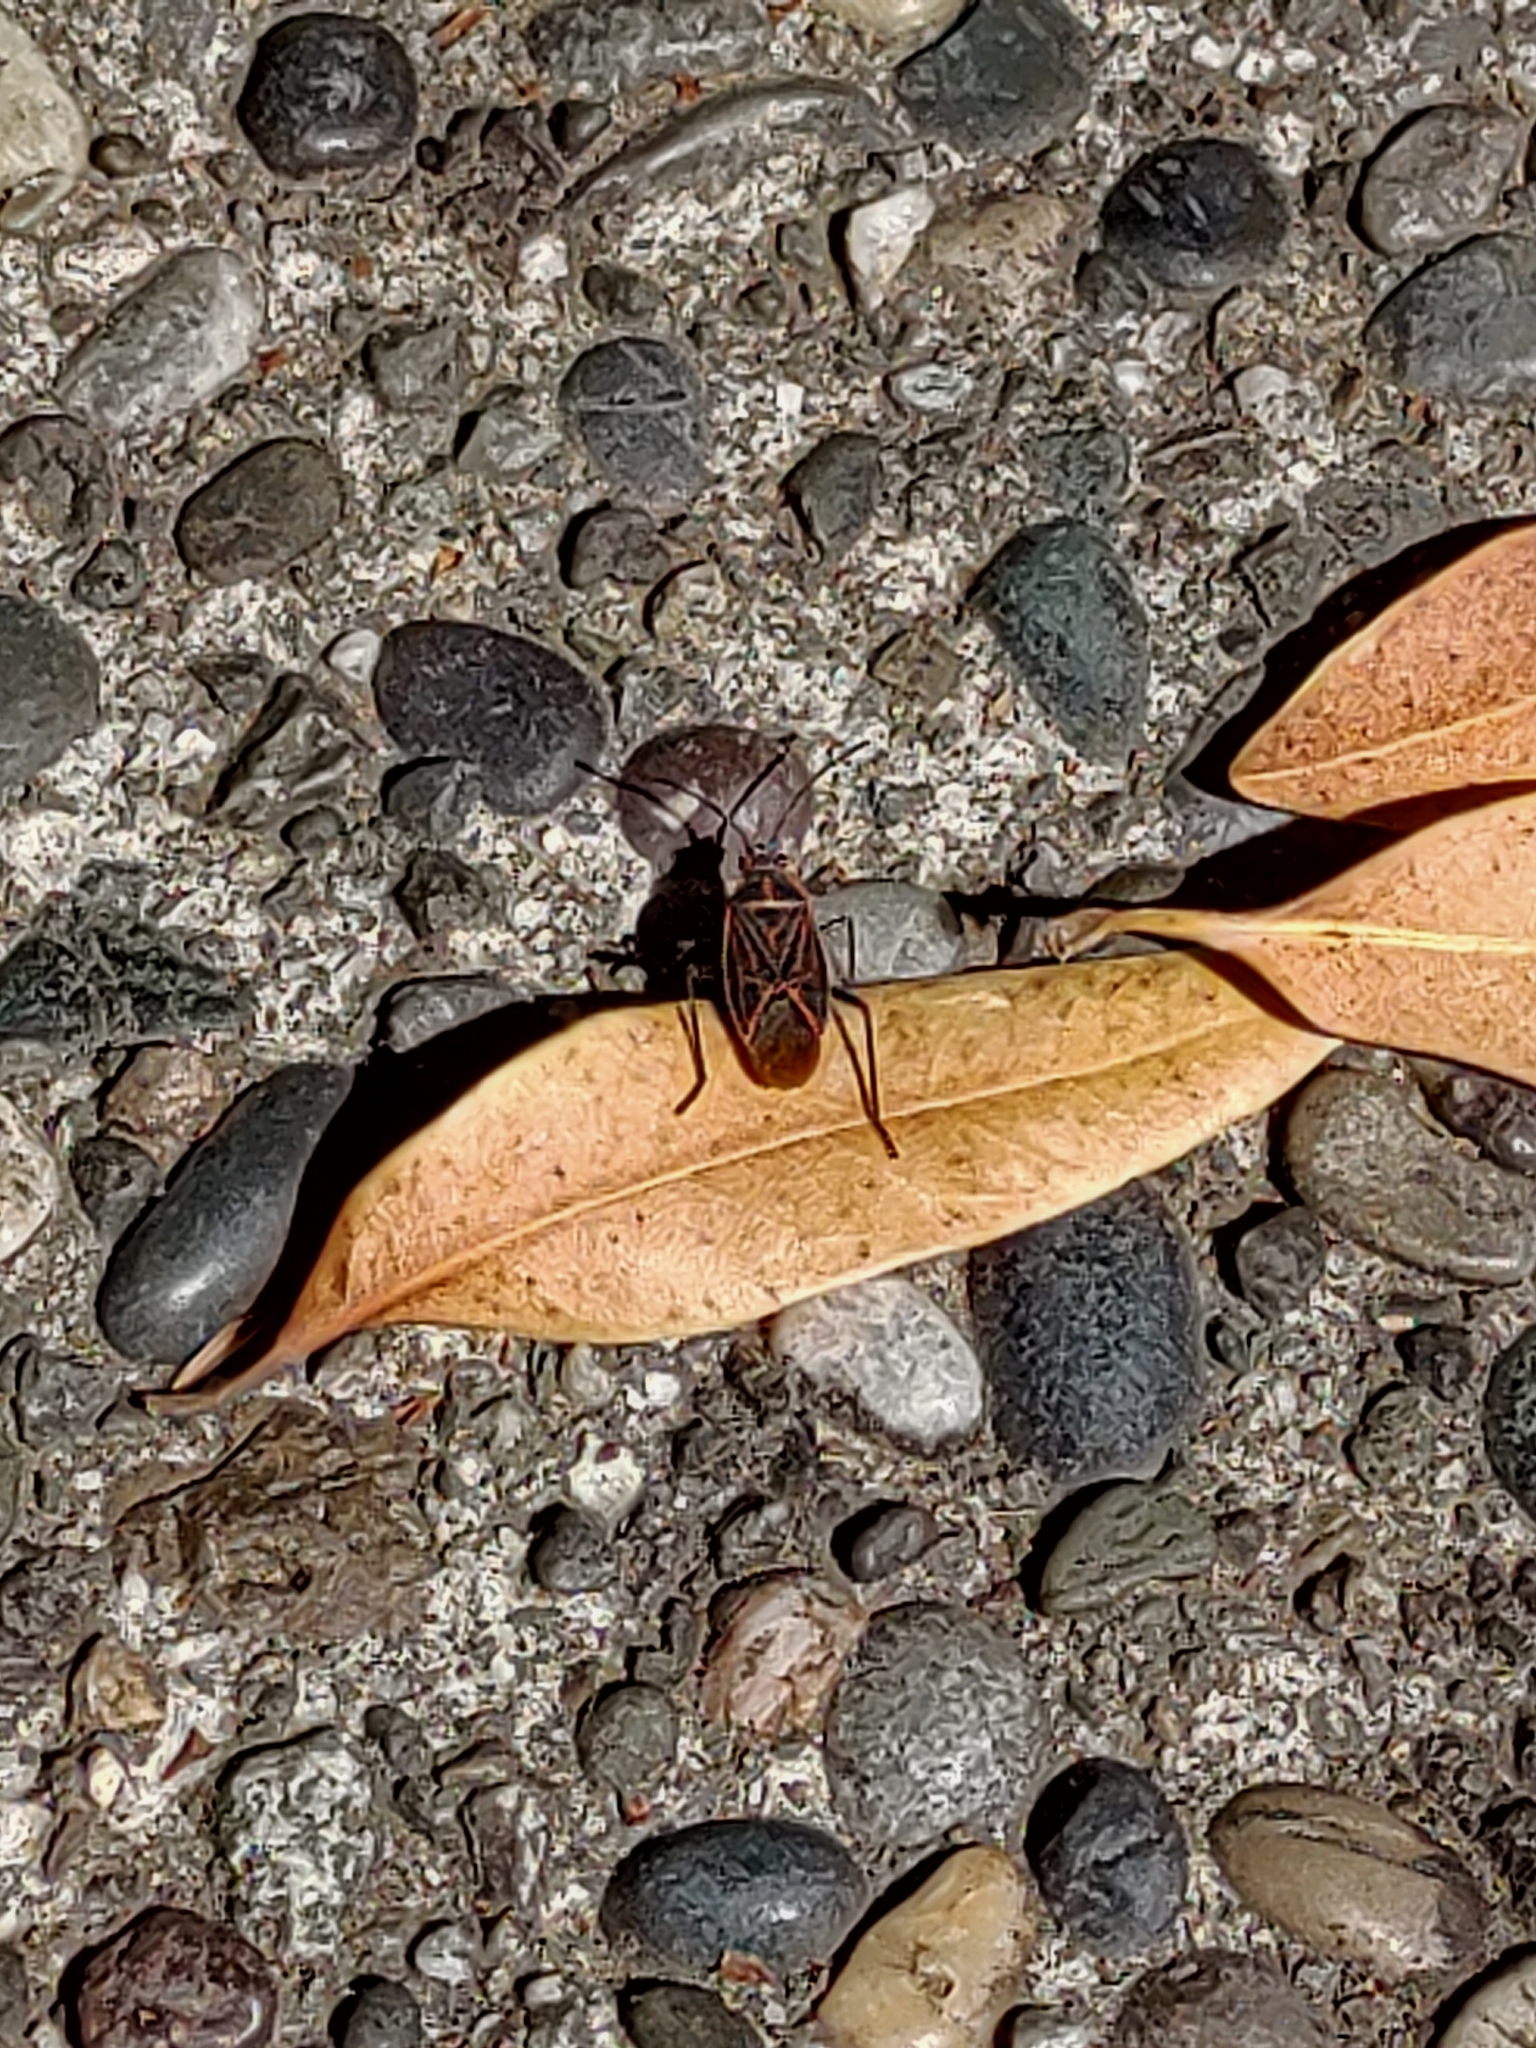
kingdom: Animalia
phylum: Arthropoda
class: Insecta
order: Hemiptera
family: Rhopalidae
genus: Boisea
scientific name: Boisea rubrolineata
